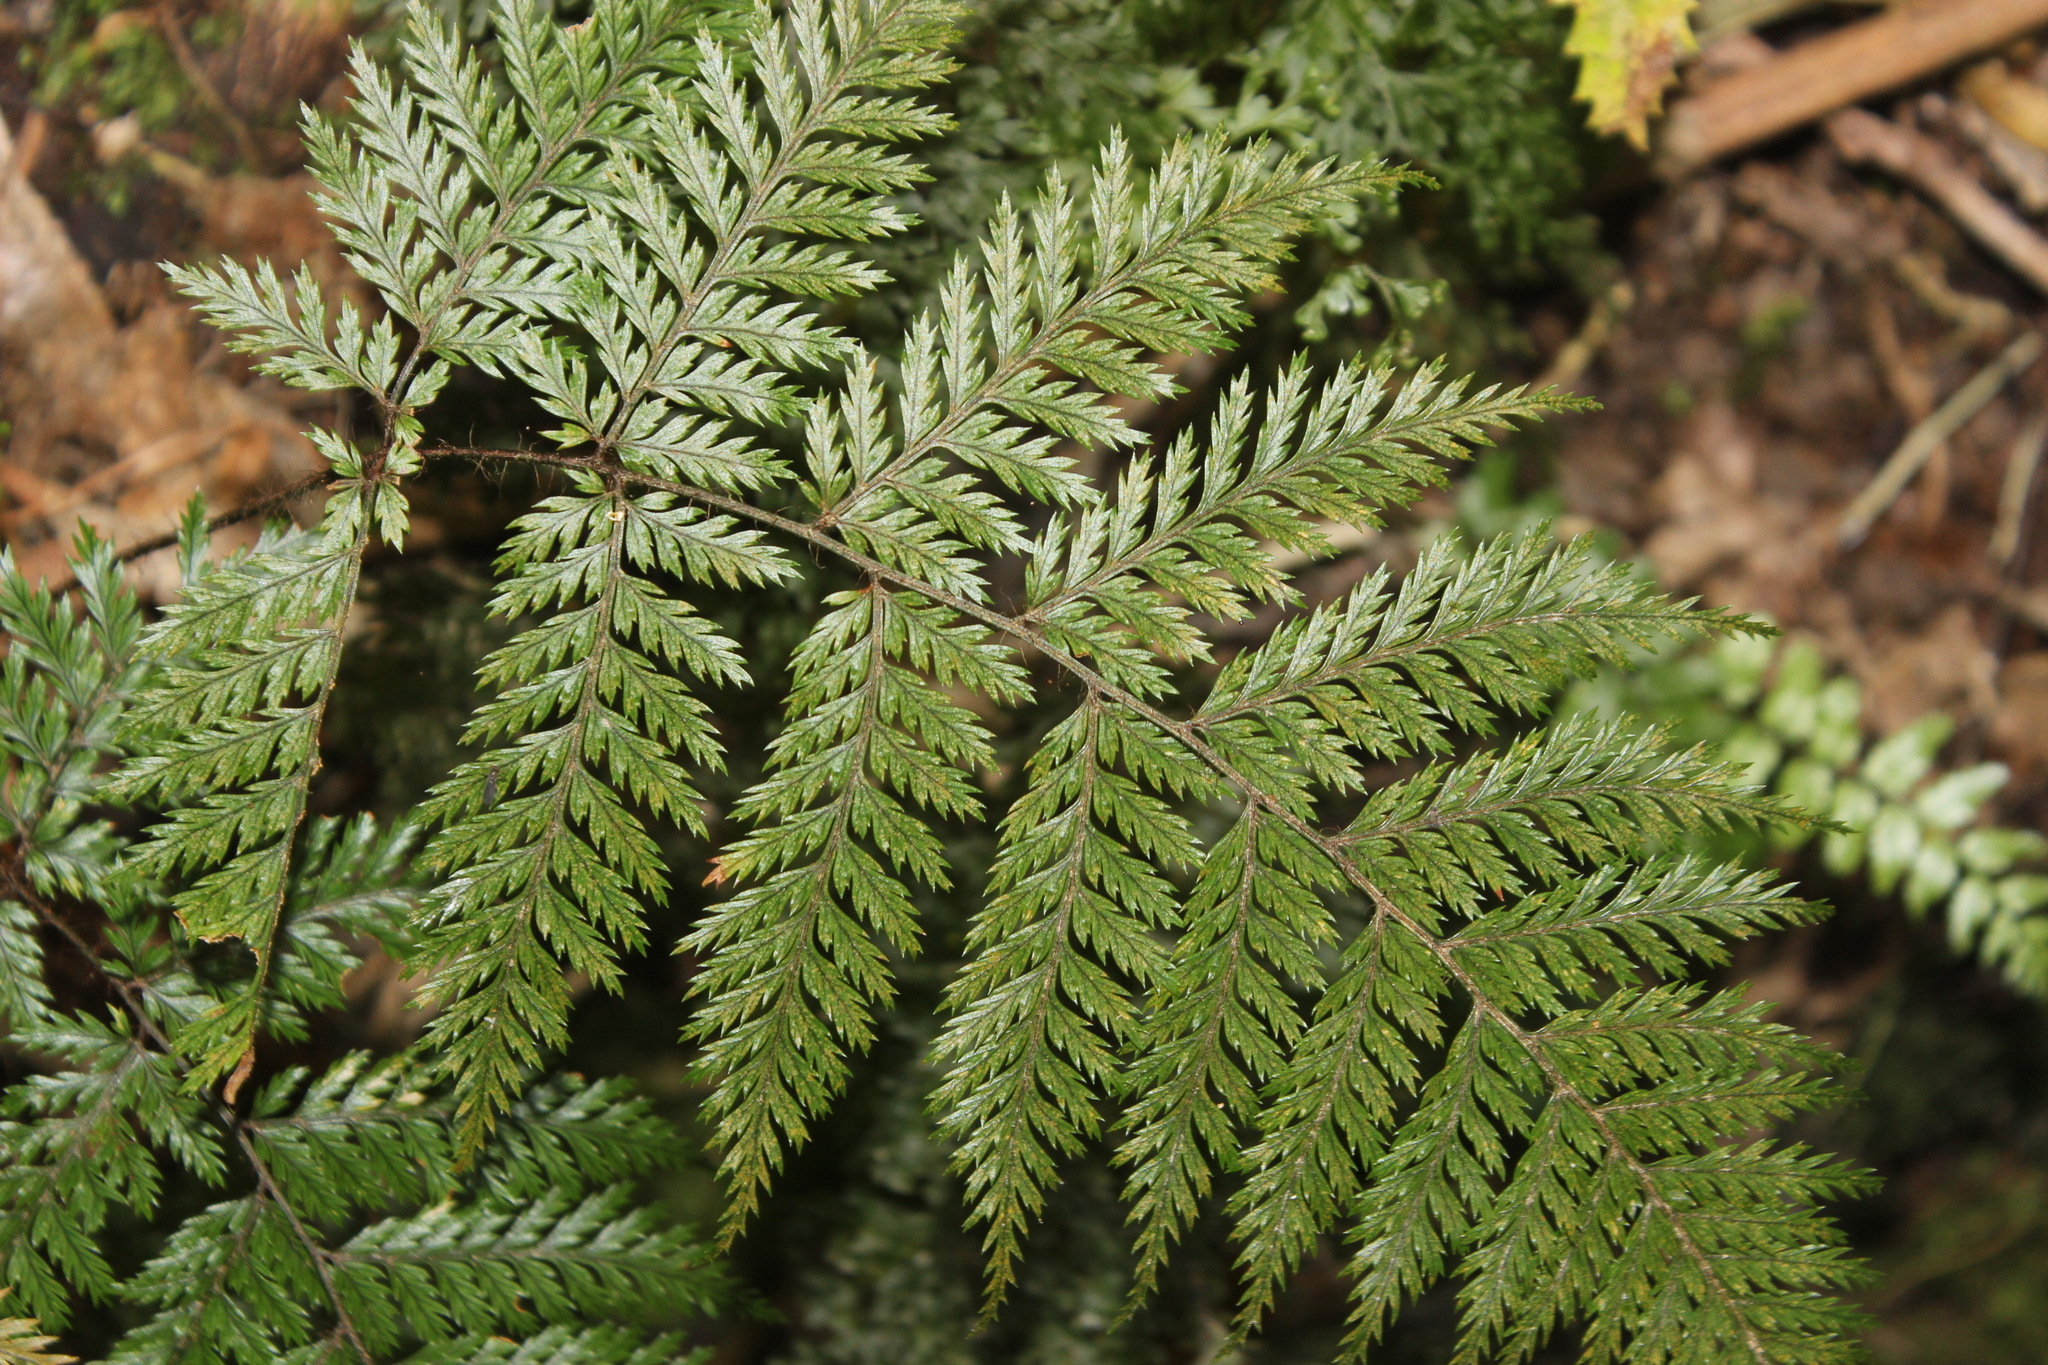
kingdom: Plantae
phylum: Tracheophyta
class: Polypodiopsida
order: Polypodiales
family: Dryopteridaceae
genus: Lastreopsis
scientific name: Lastreopsis hispida
